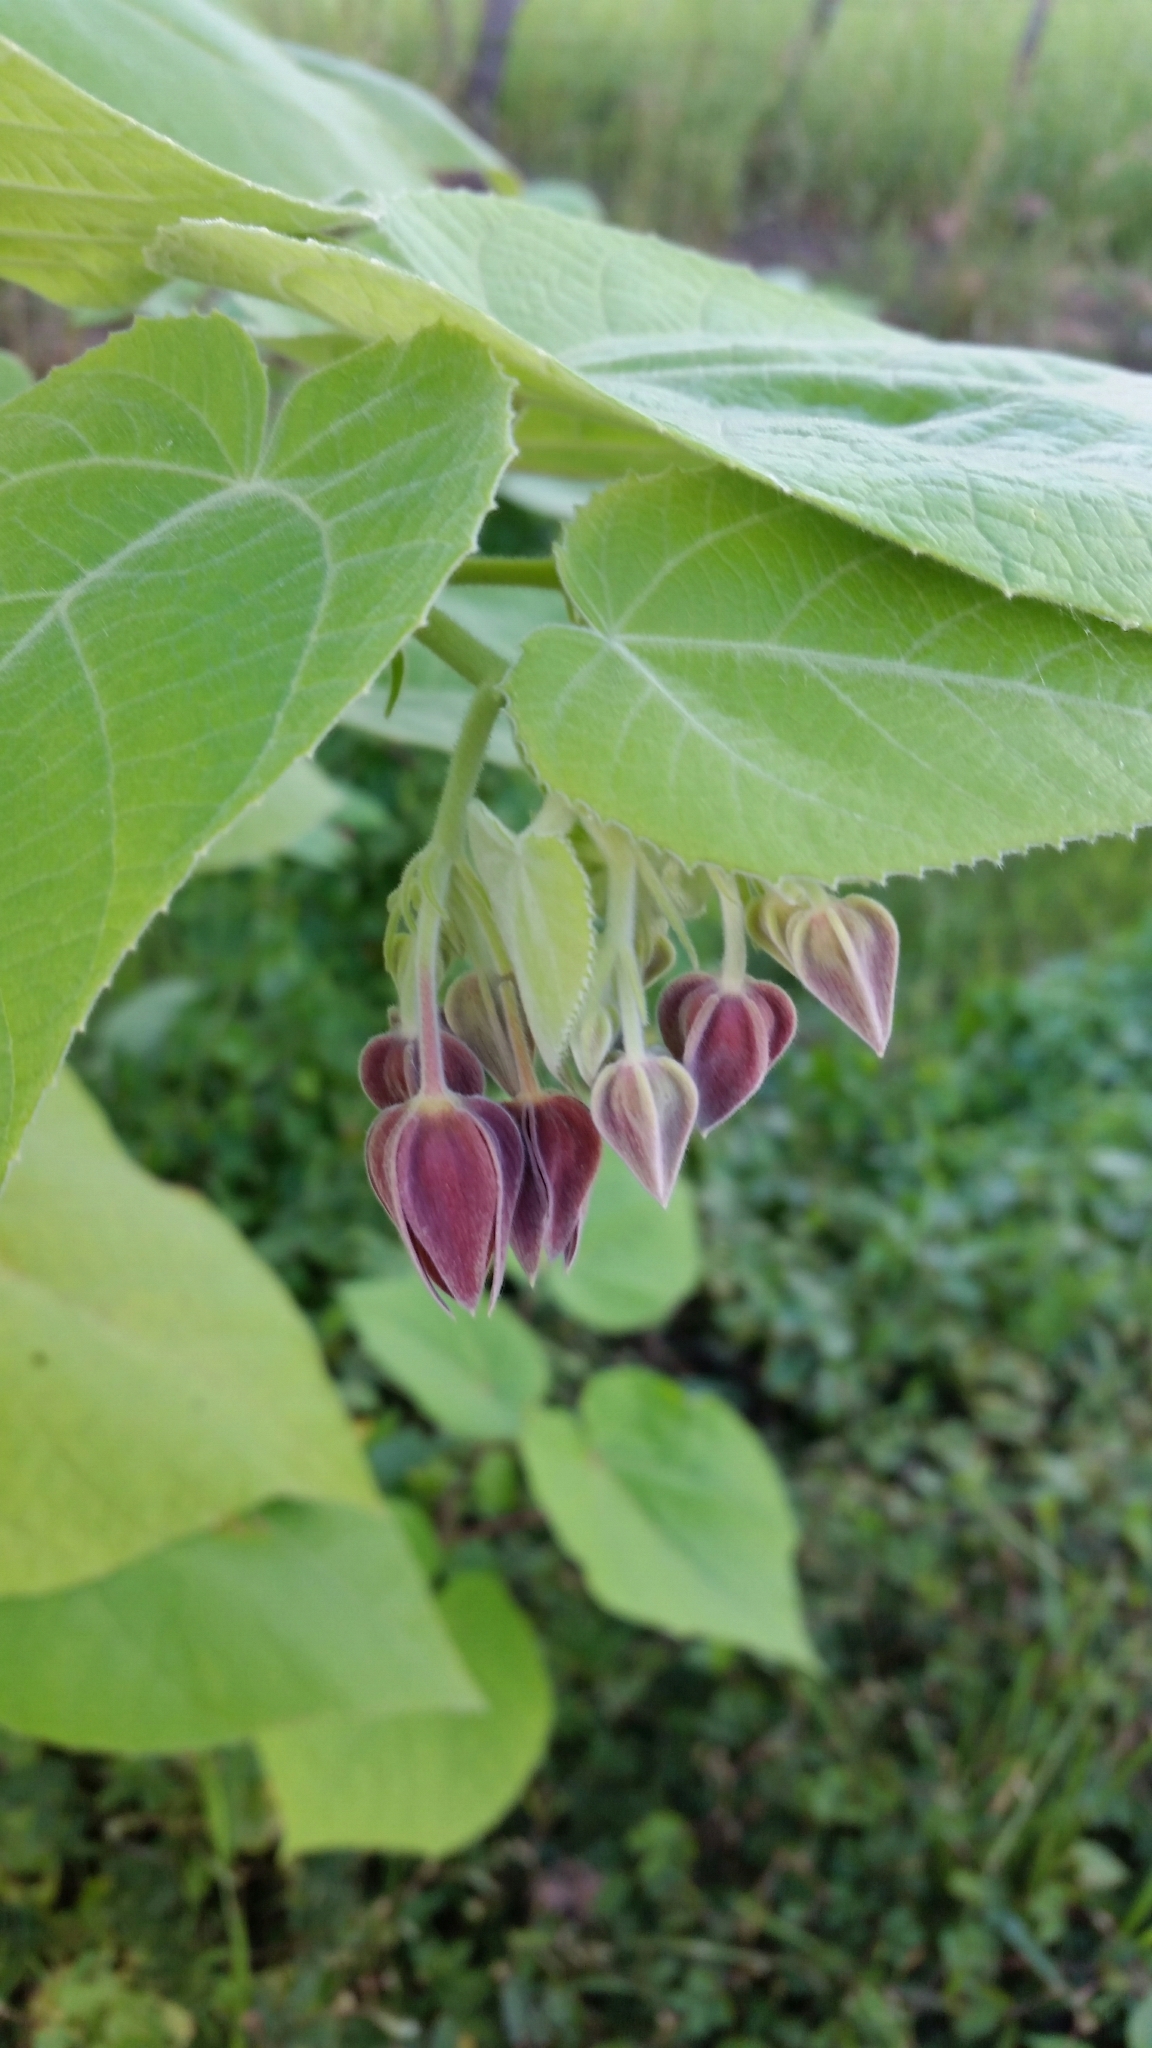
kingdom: Plantae
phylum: Tracheophyta
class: Magnoliopsida
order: Malvales
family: Malvaceae
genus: Abroma
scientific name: Abroma augustum
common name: Devil's-cotton
